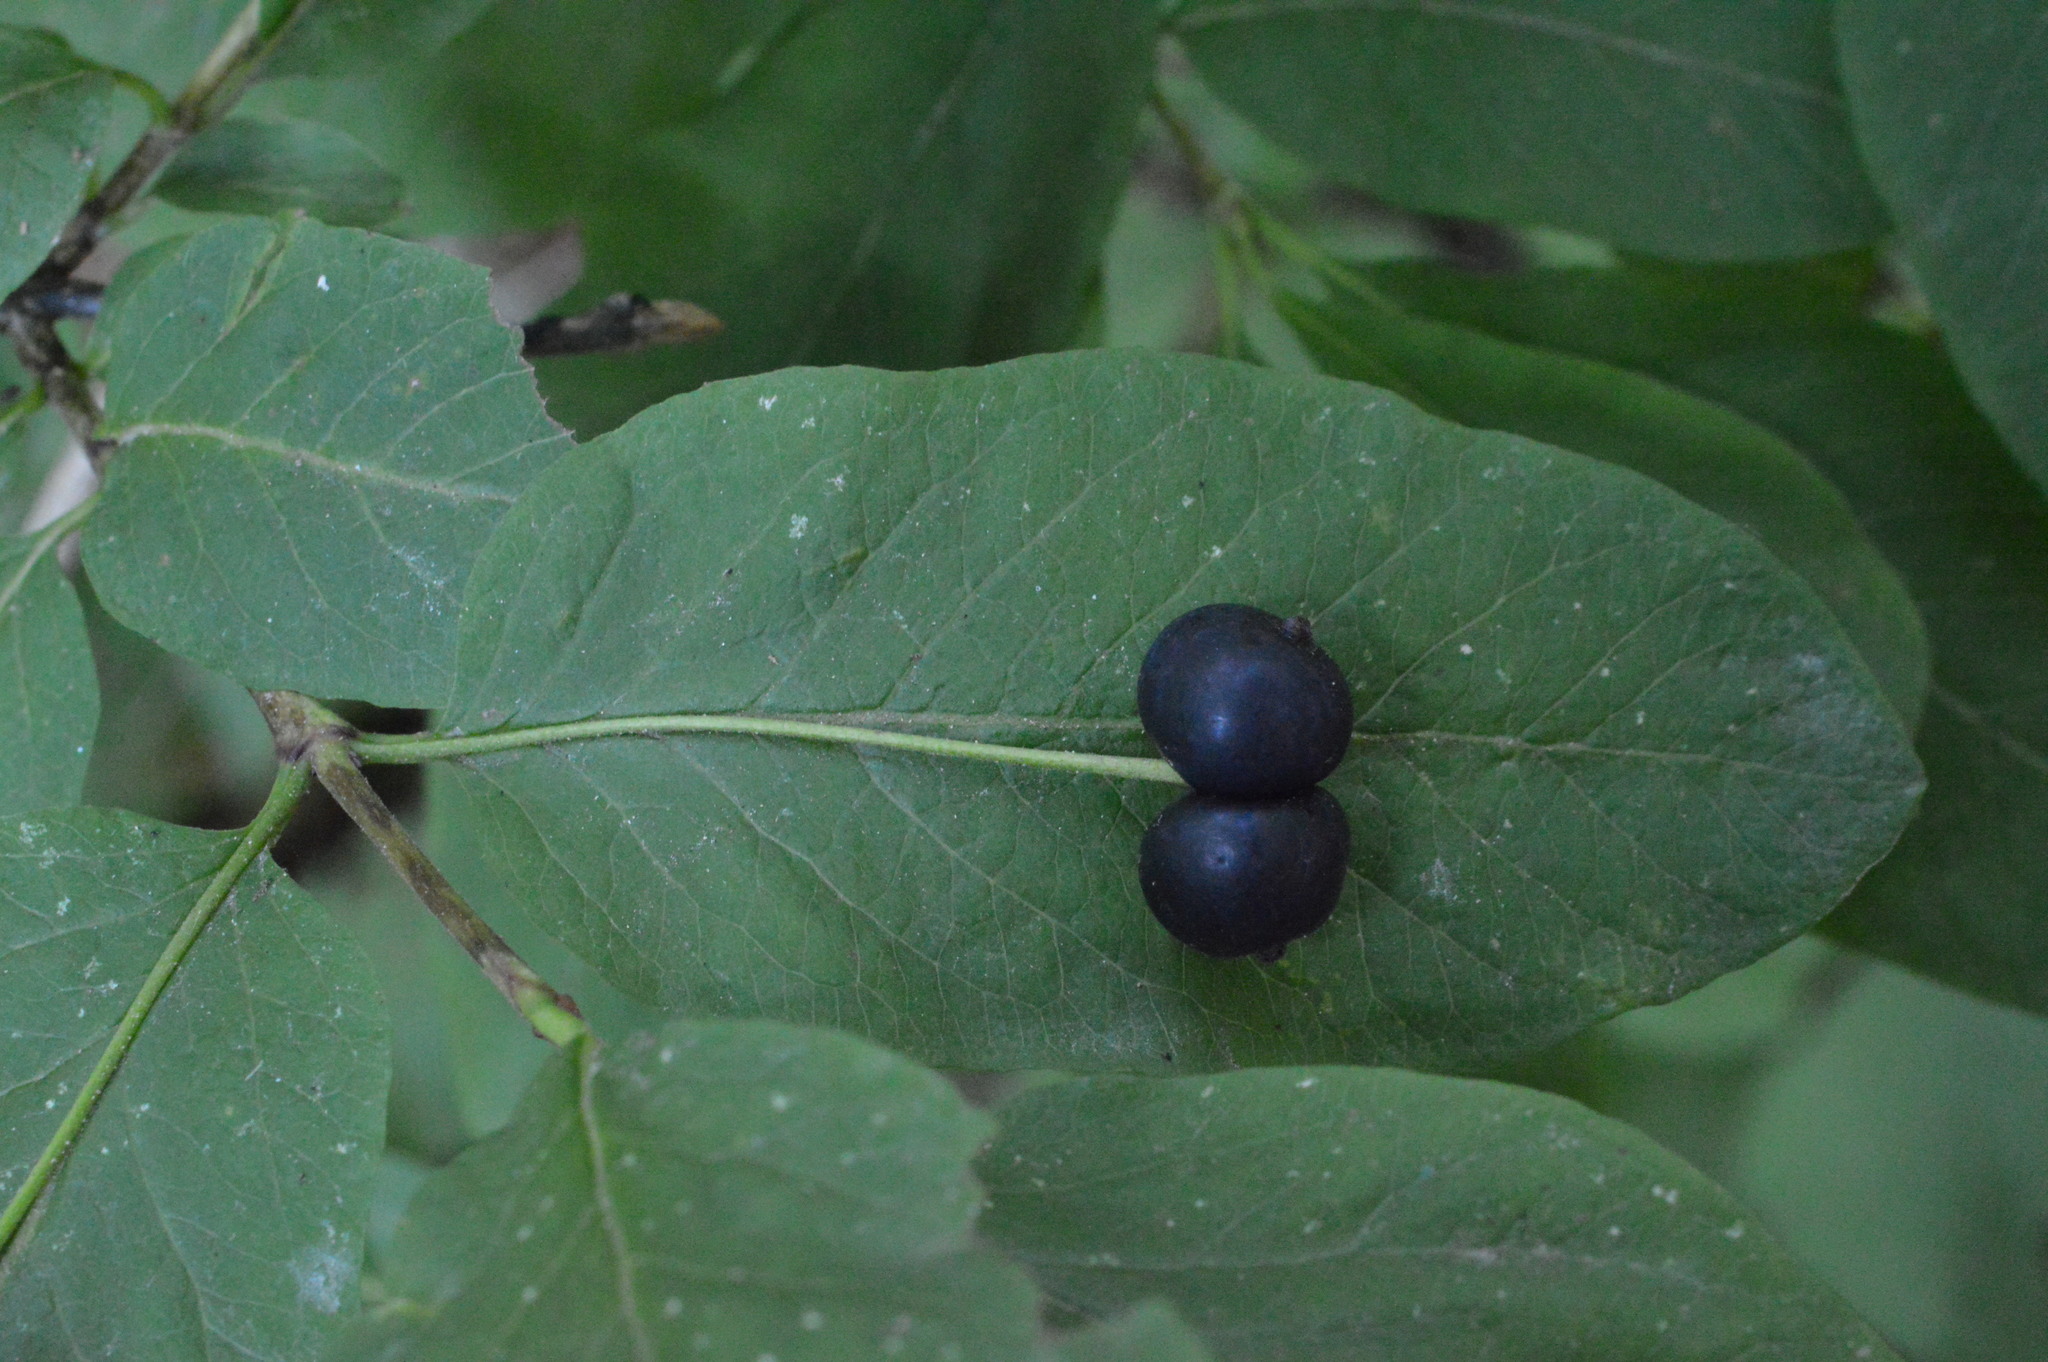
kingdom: Plantae
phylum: Tracheophyta
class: Magnoliopsida
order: Dipsacales
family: Caprifoliaceae
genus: Lonicera
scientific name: Lonicera nigra
